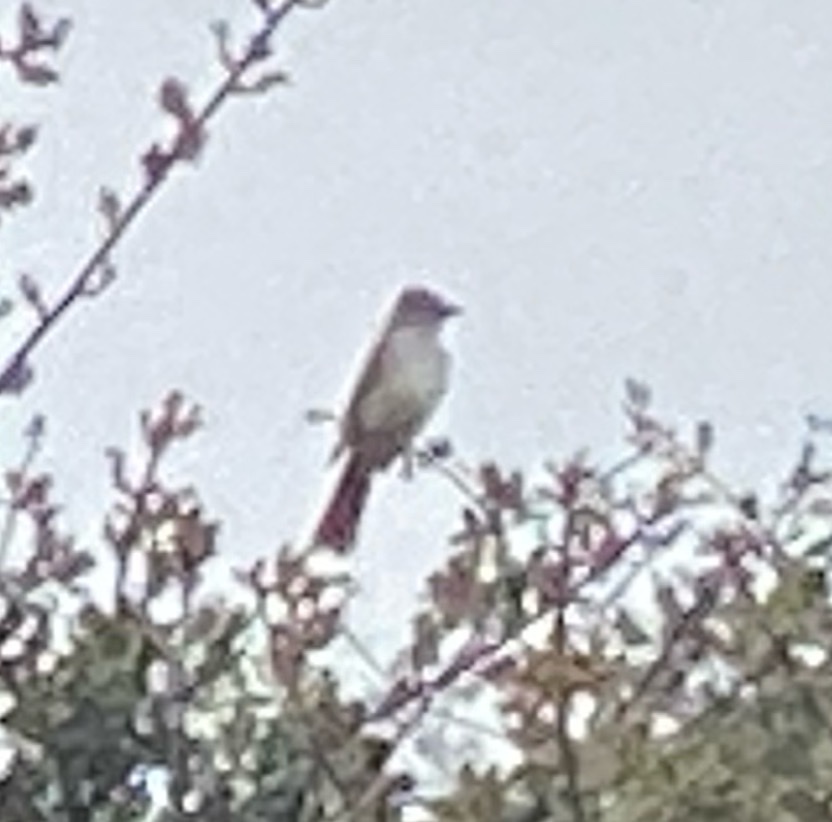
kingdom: Animalia
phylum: Chordata
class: Aves
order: Passeriformes
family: Tyrannidae
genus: Myiarchus
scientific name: Myiarchus cinerascens
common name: Ash-throated flycatcher
